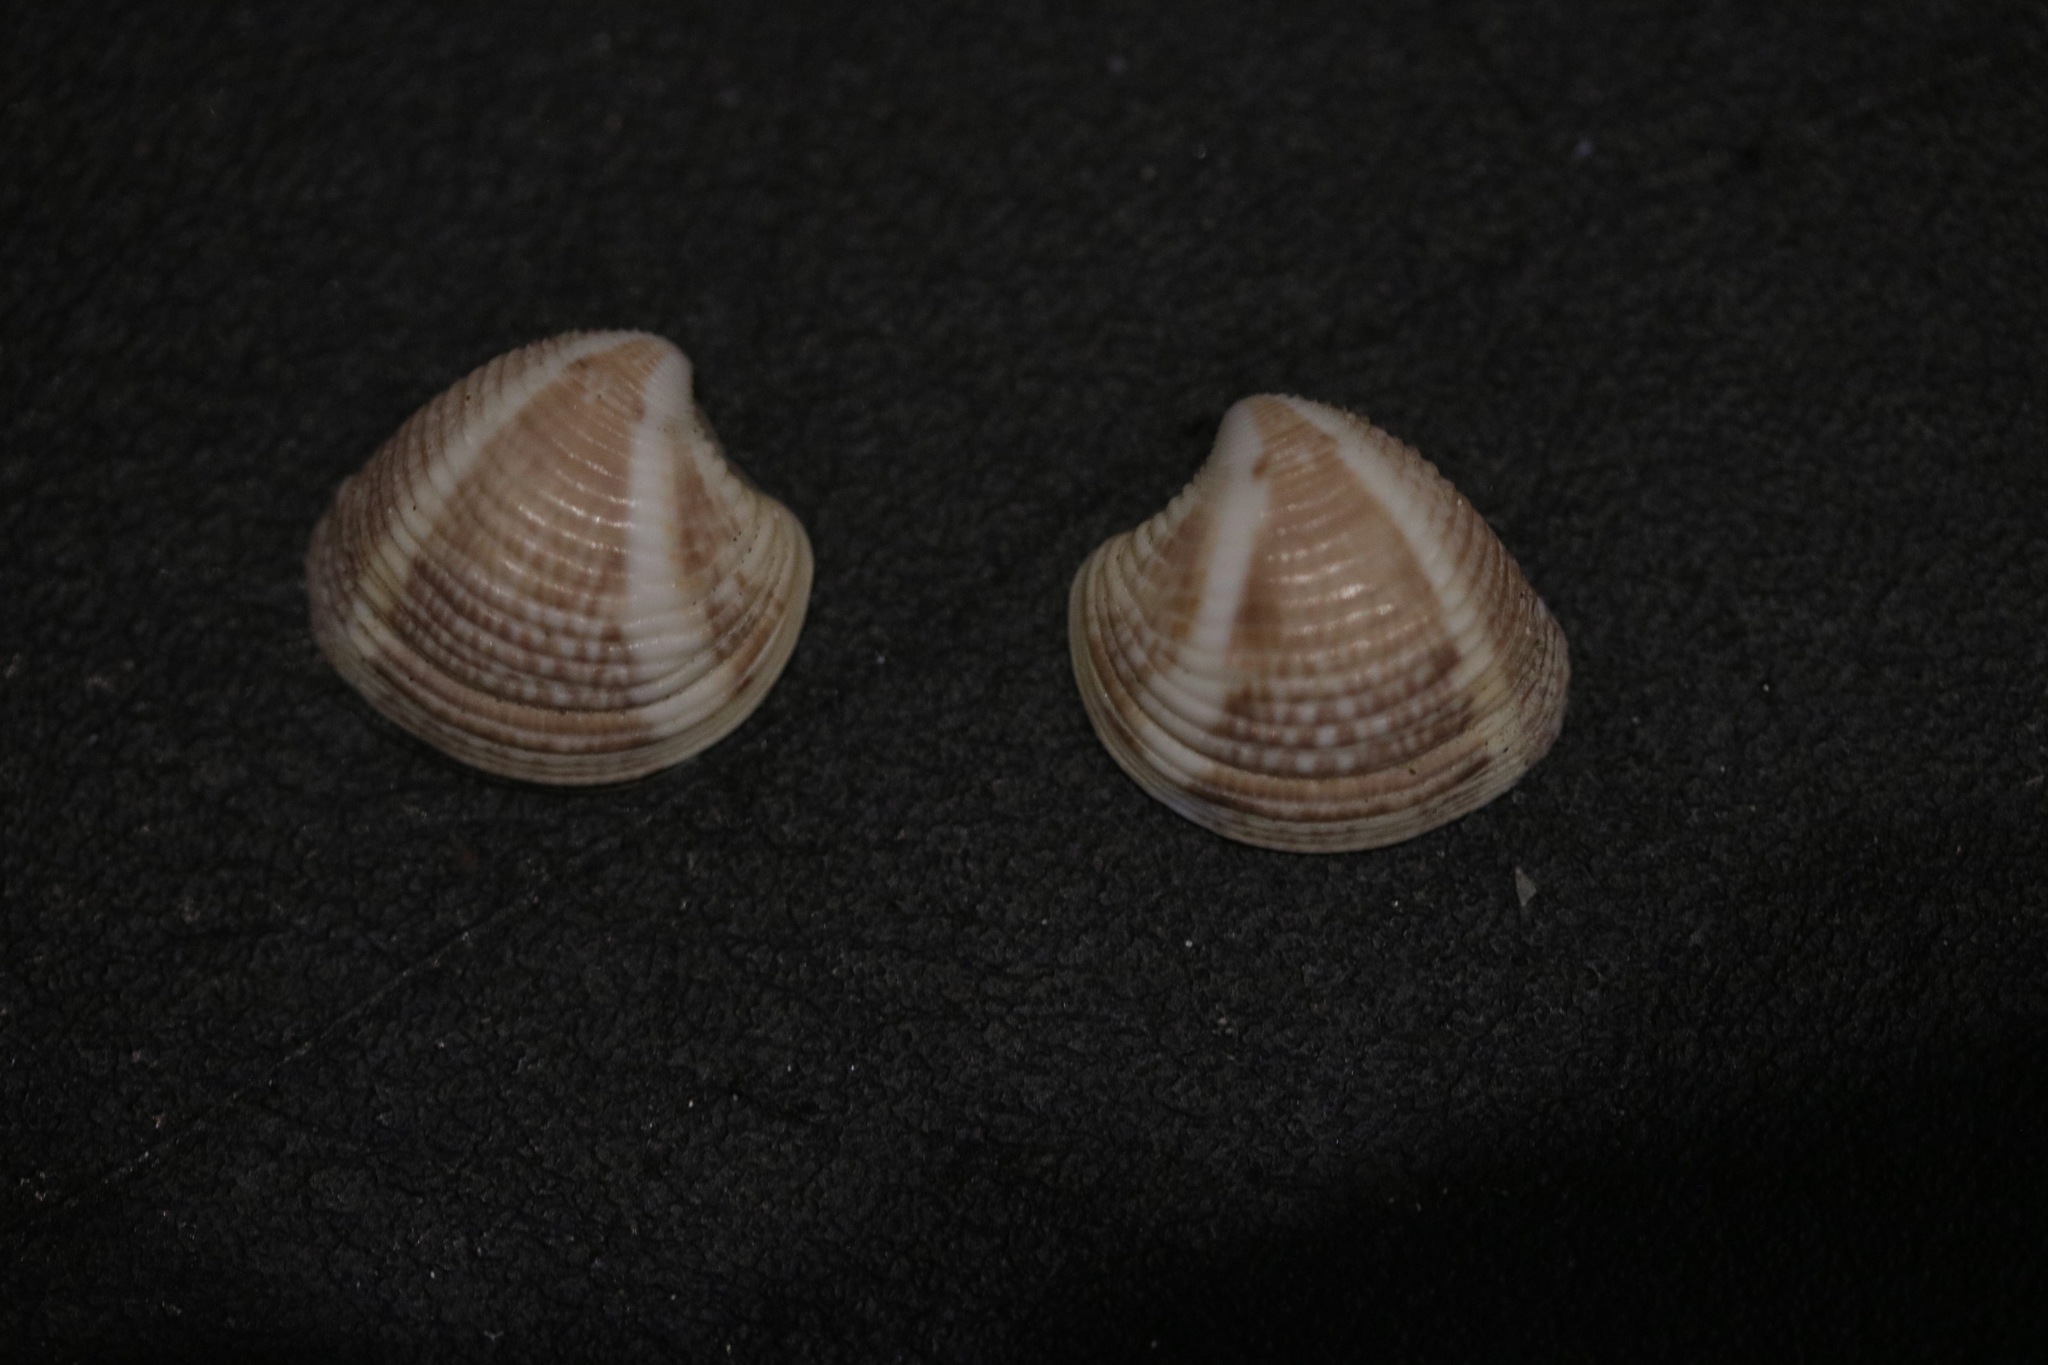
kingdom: Animalia
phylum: Mollusca
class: Bivalvia
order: Venerida
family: Veneridae
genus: Chamelea
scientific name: Chamelea gallina
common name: Chicken venus
